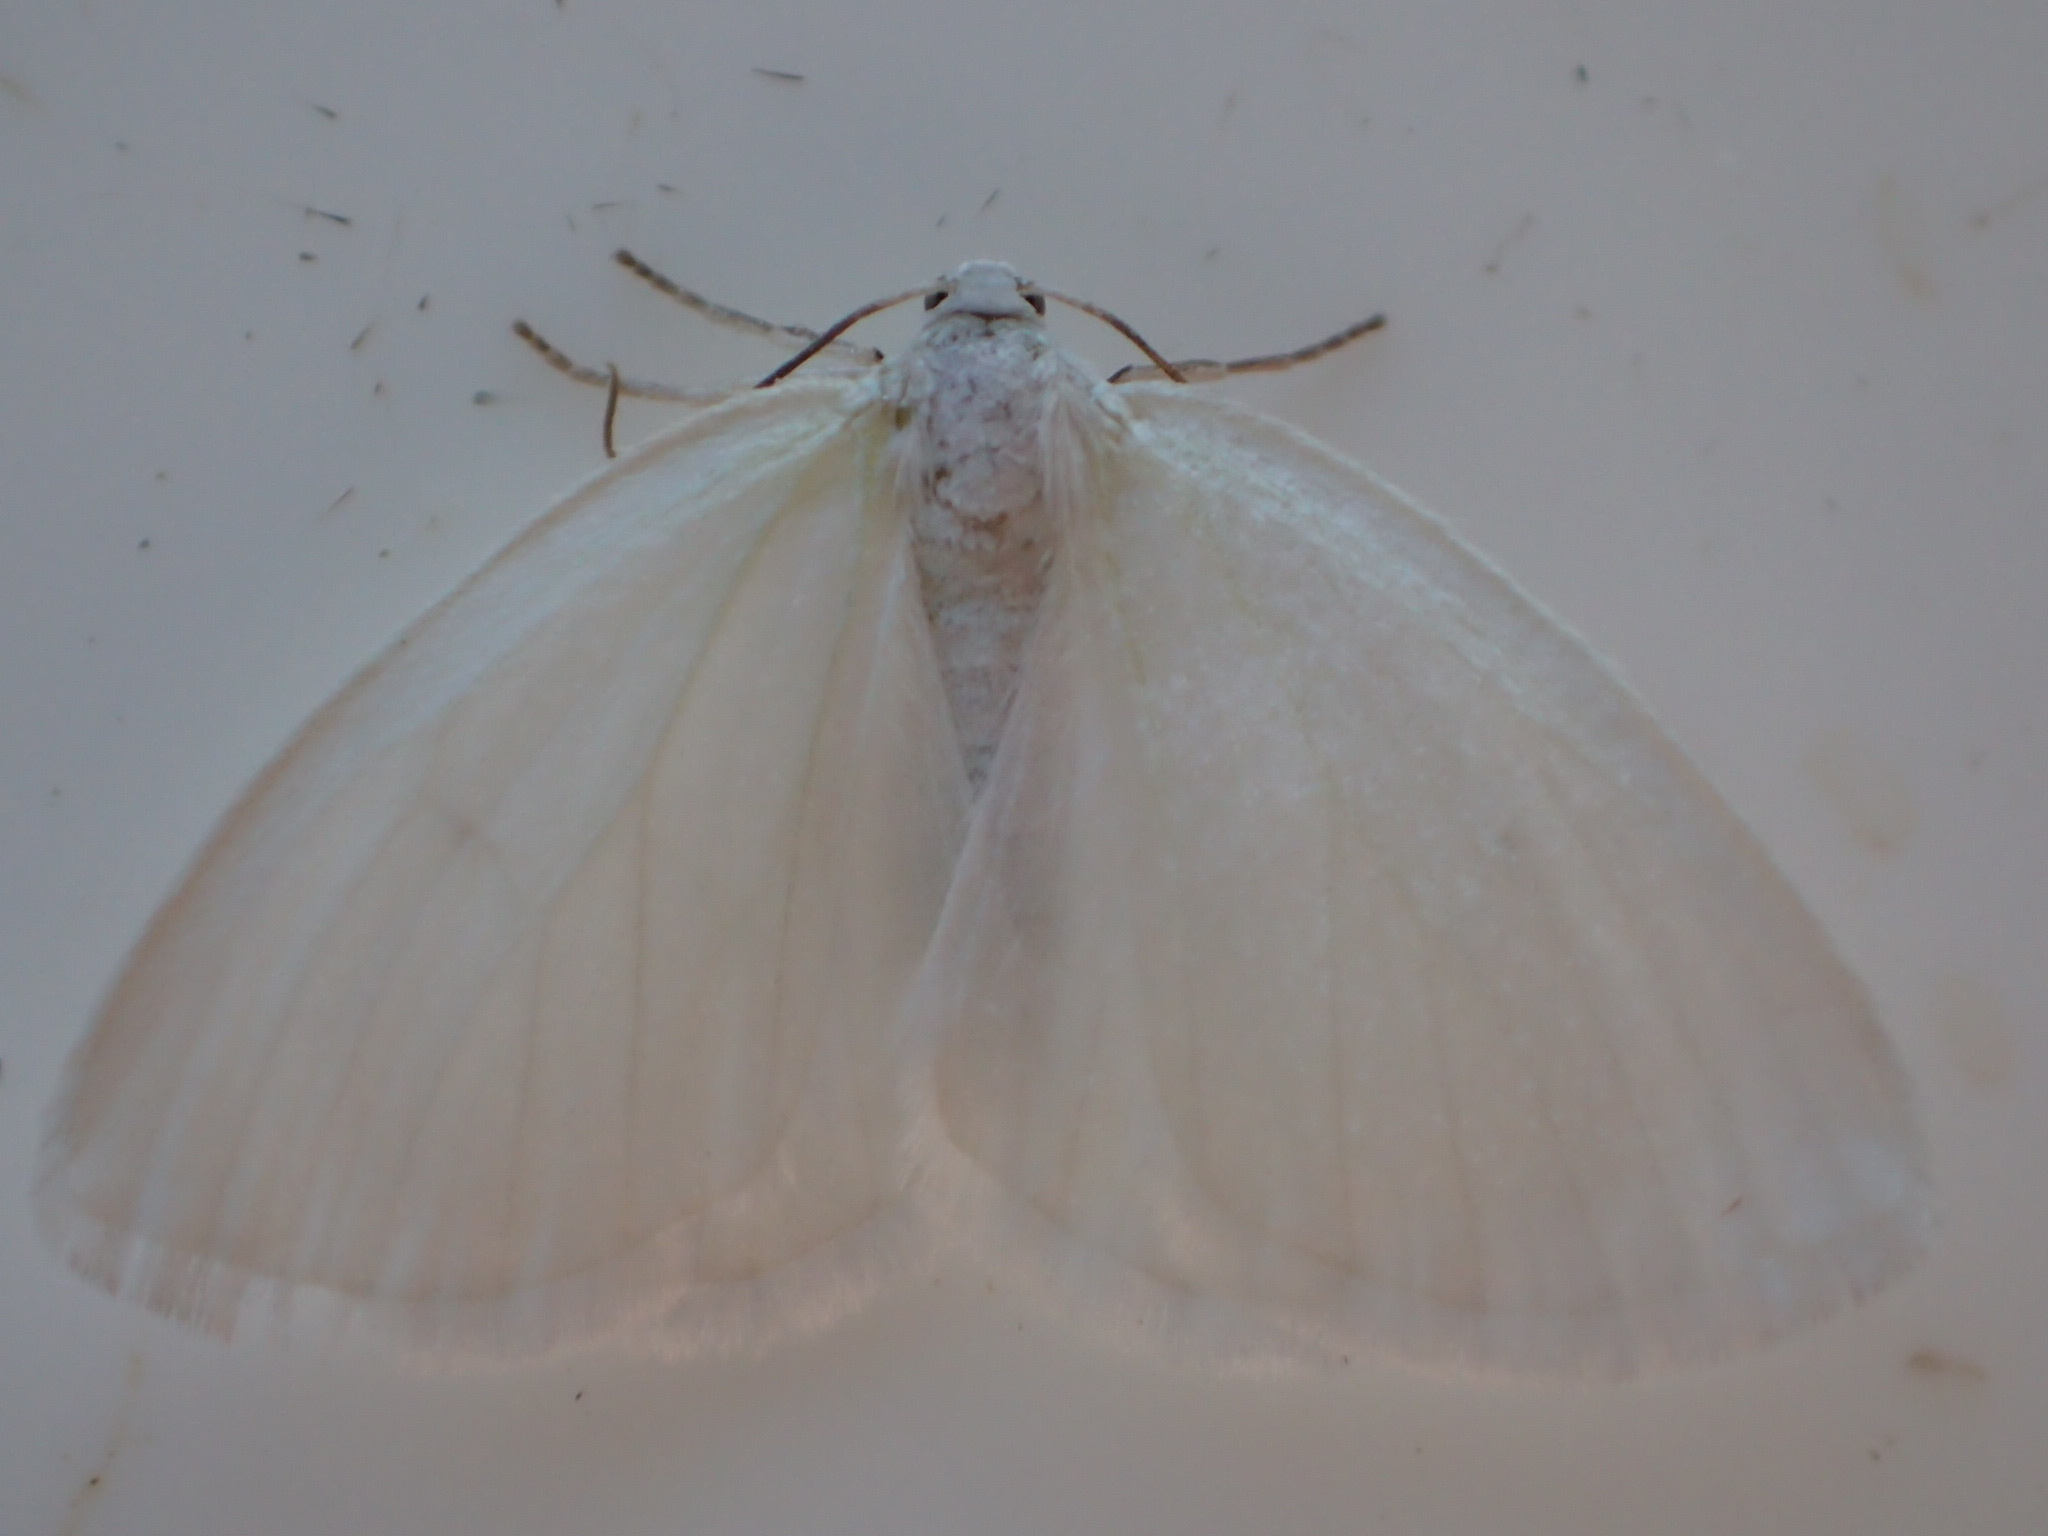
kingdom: Animalia
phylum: Arthropoda
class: Insecta
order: Lepidoptera
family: Geometridae
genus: Lomographa
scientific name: Lomographa vestaliata
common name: White spring moth
